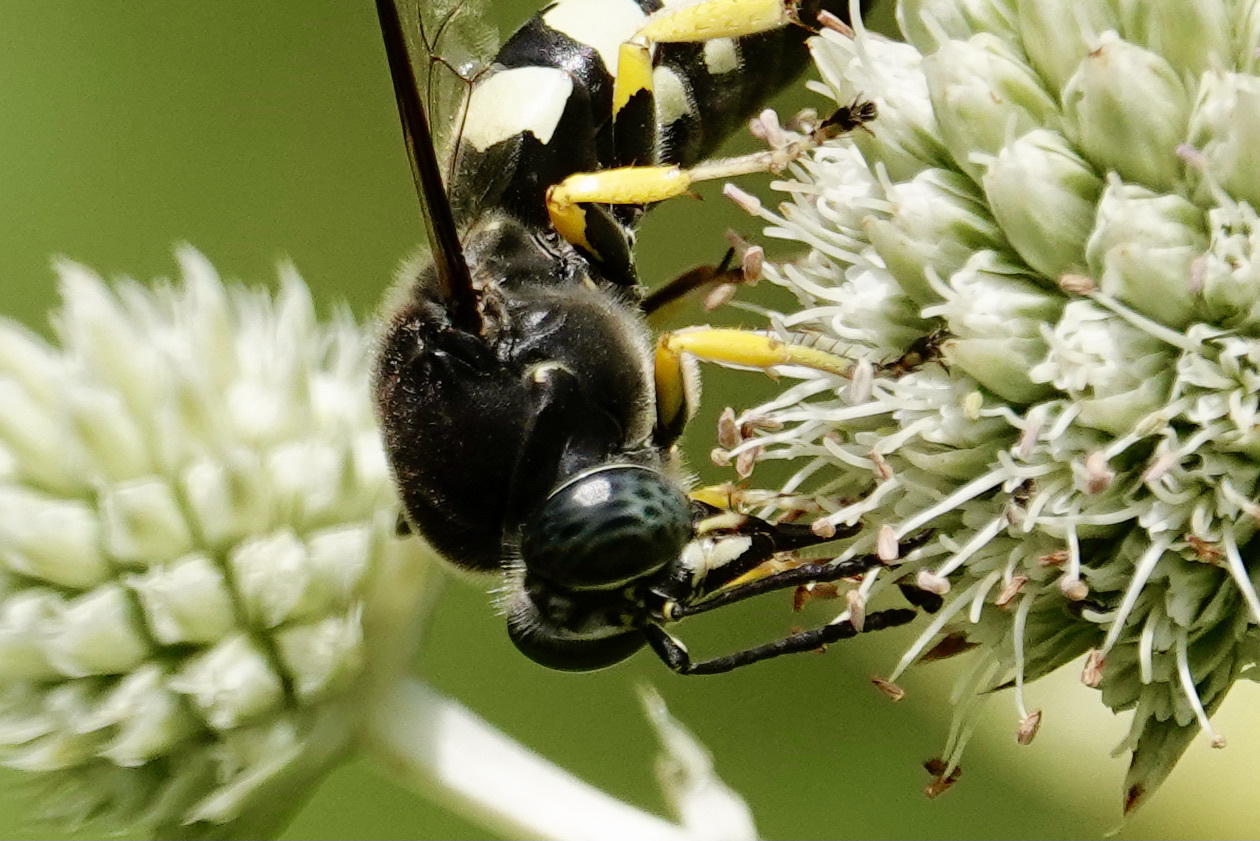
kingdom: Animalia
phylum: Arthropoda
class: Insecta
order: Hymenoptera
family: Crabronidae
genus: Stictia
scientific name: Stictia carolina
